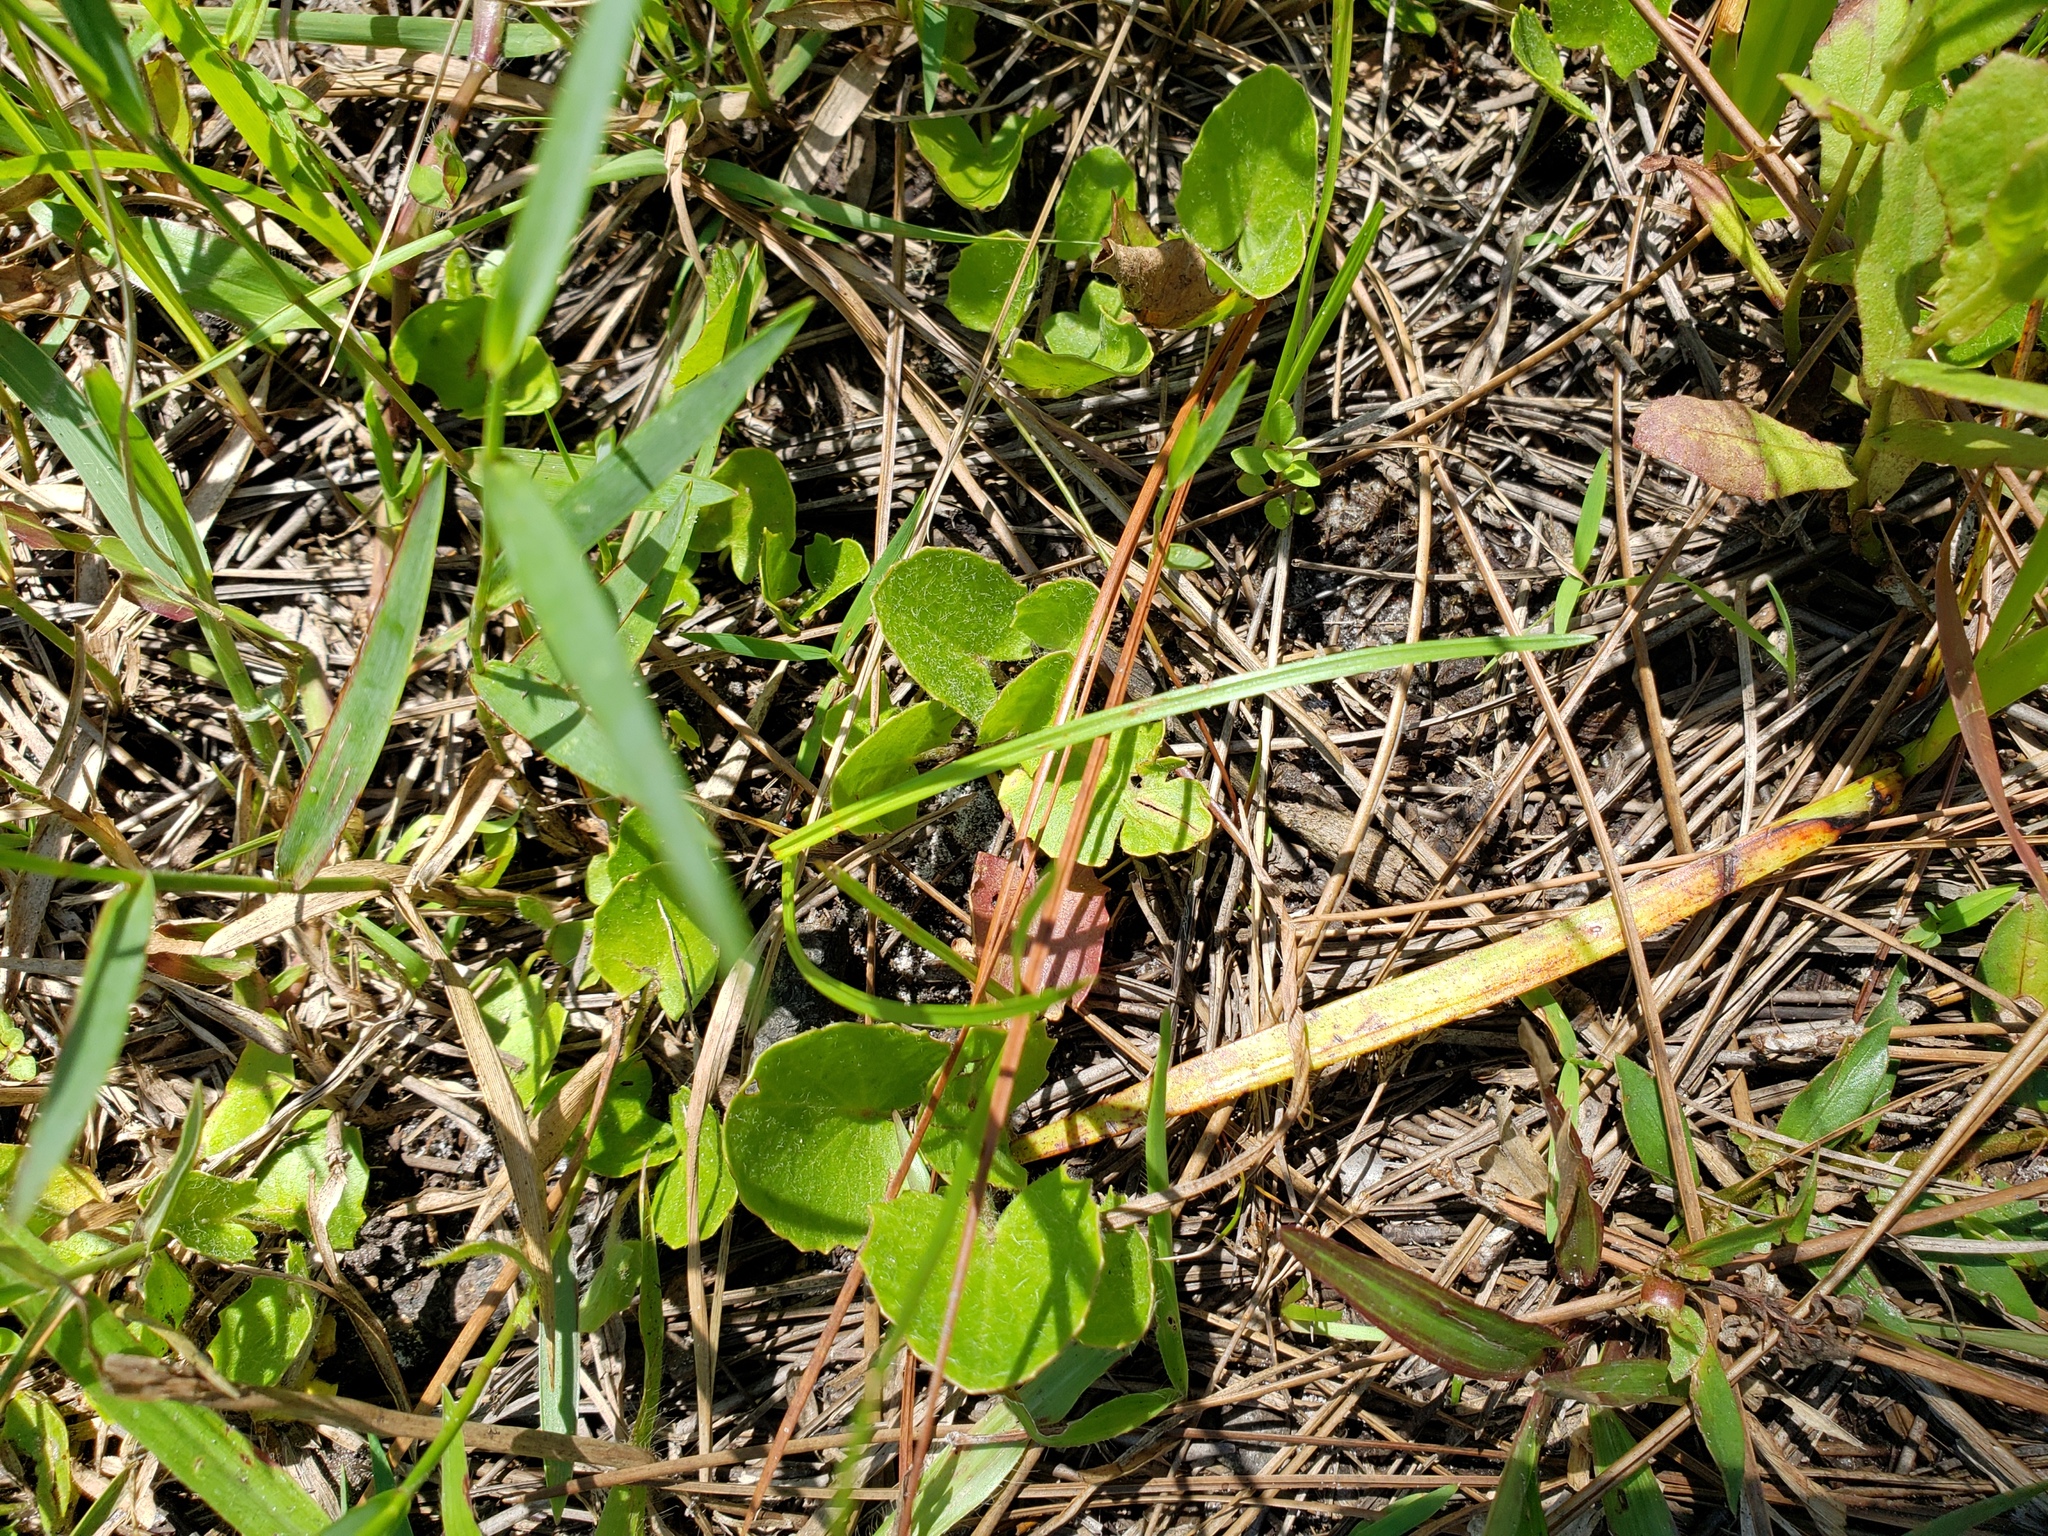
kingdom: Plantae
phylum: Tracheophyta
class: Magnoliopsida
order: Apiales
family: Apiaceae
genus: Centella
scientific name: Centella erecta
